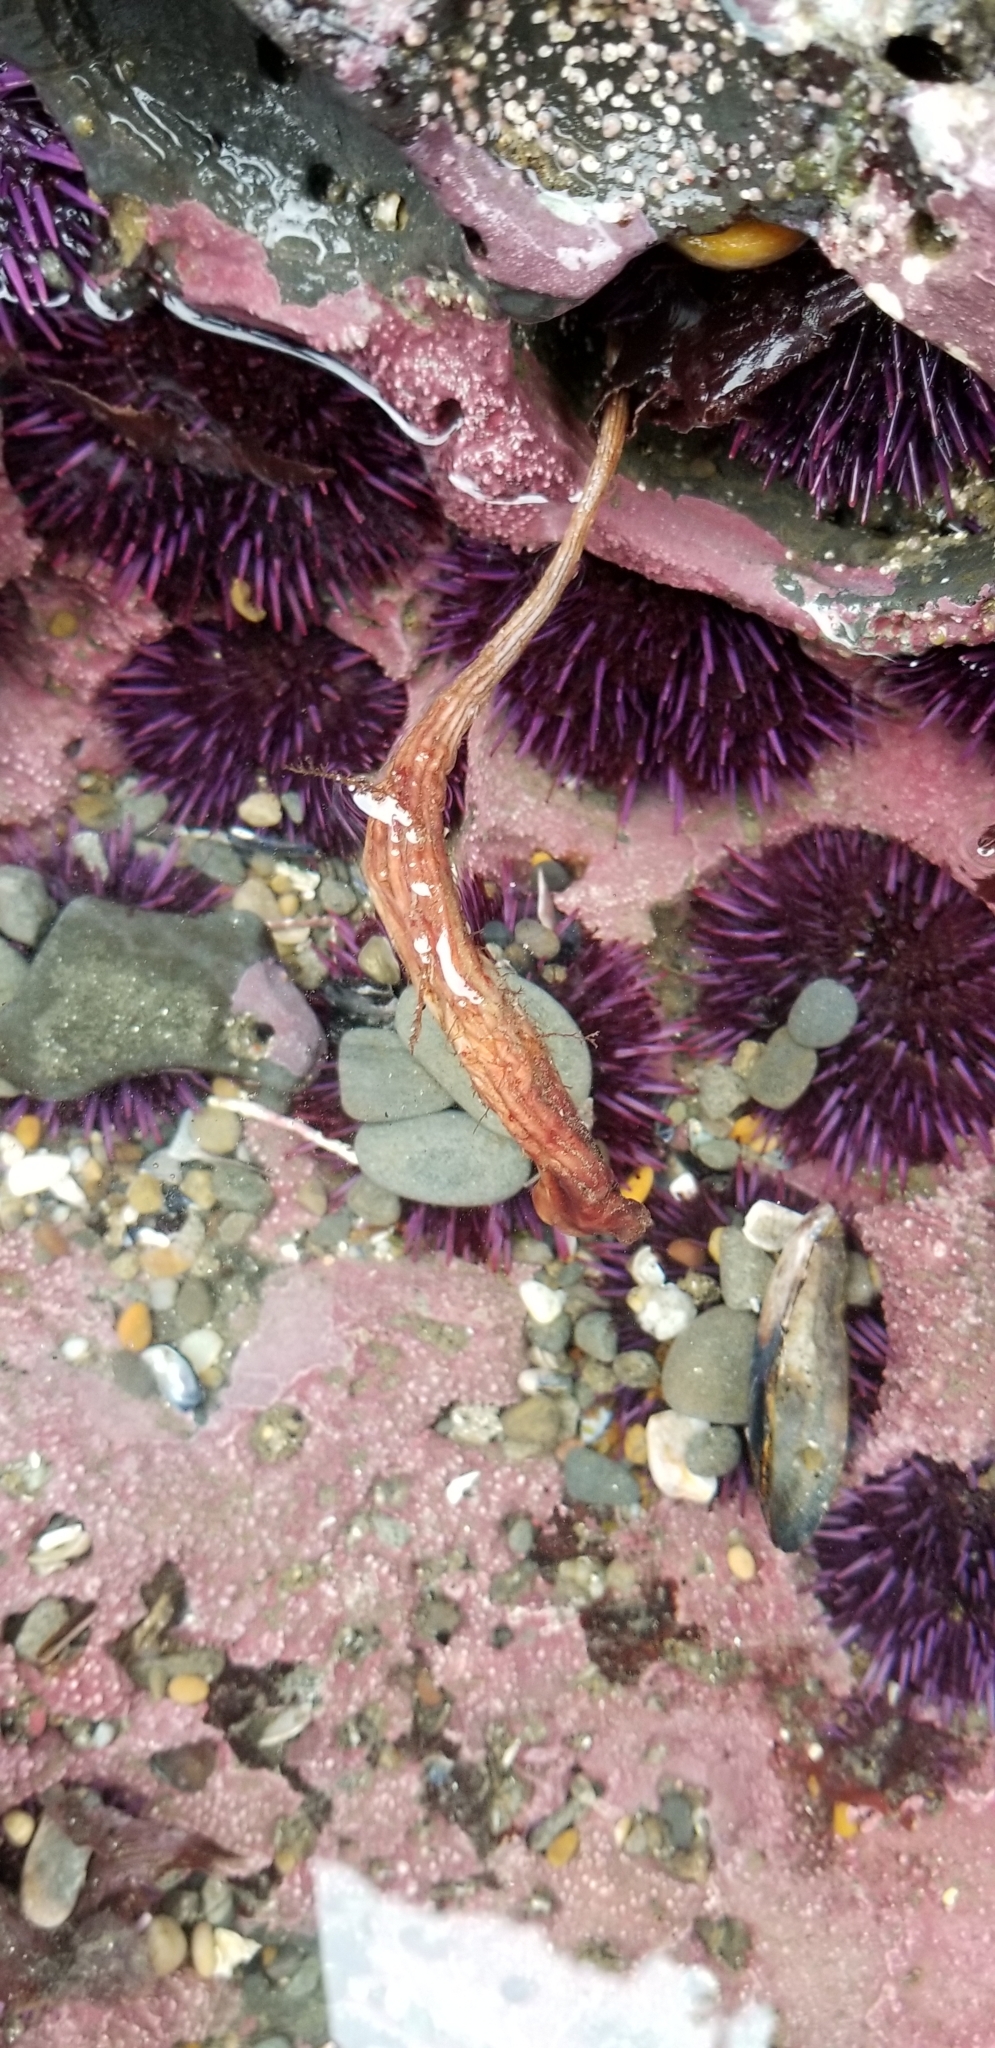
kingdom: Animalia
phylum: Chordata
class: Ascidiacea
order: Stolidobranchia
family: Styelidae
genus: Styela
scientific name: Styela montereyensis
